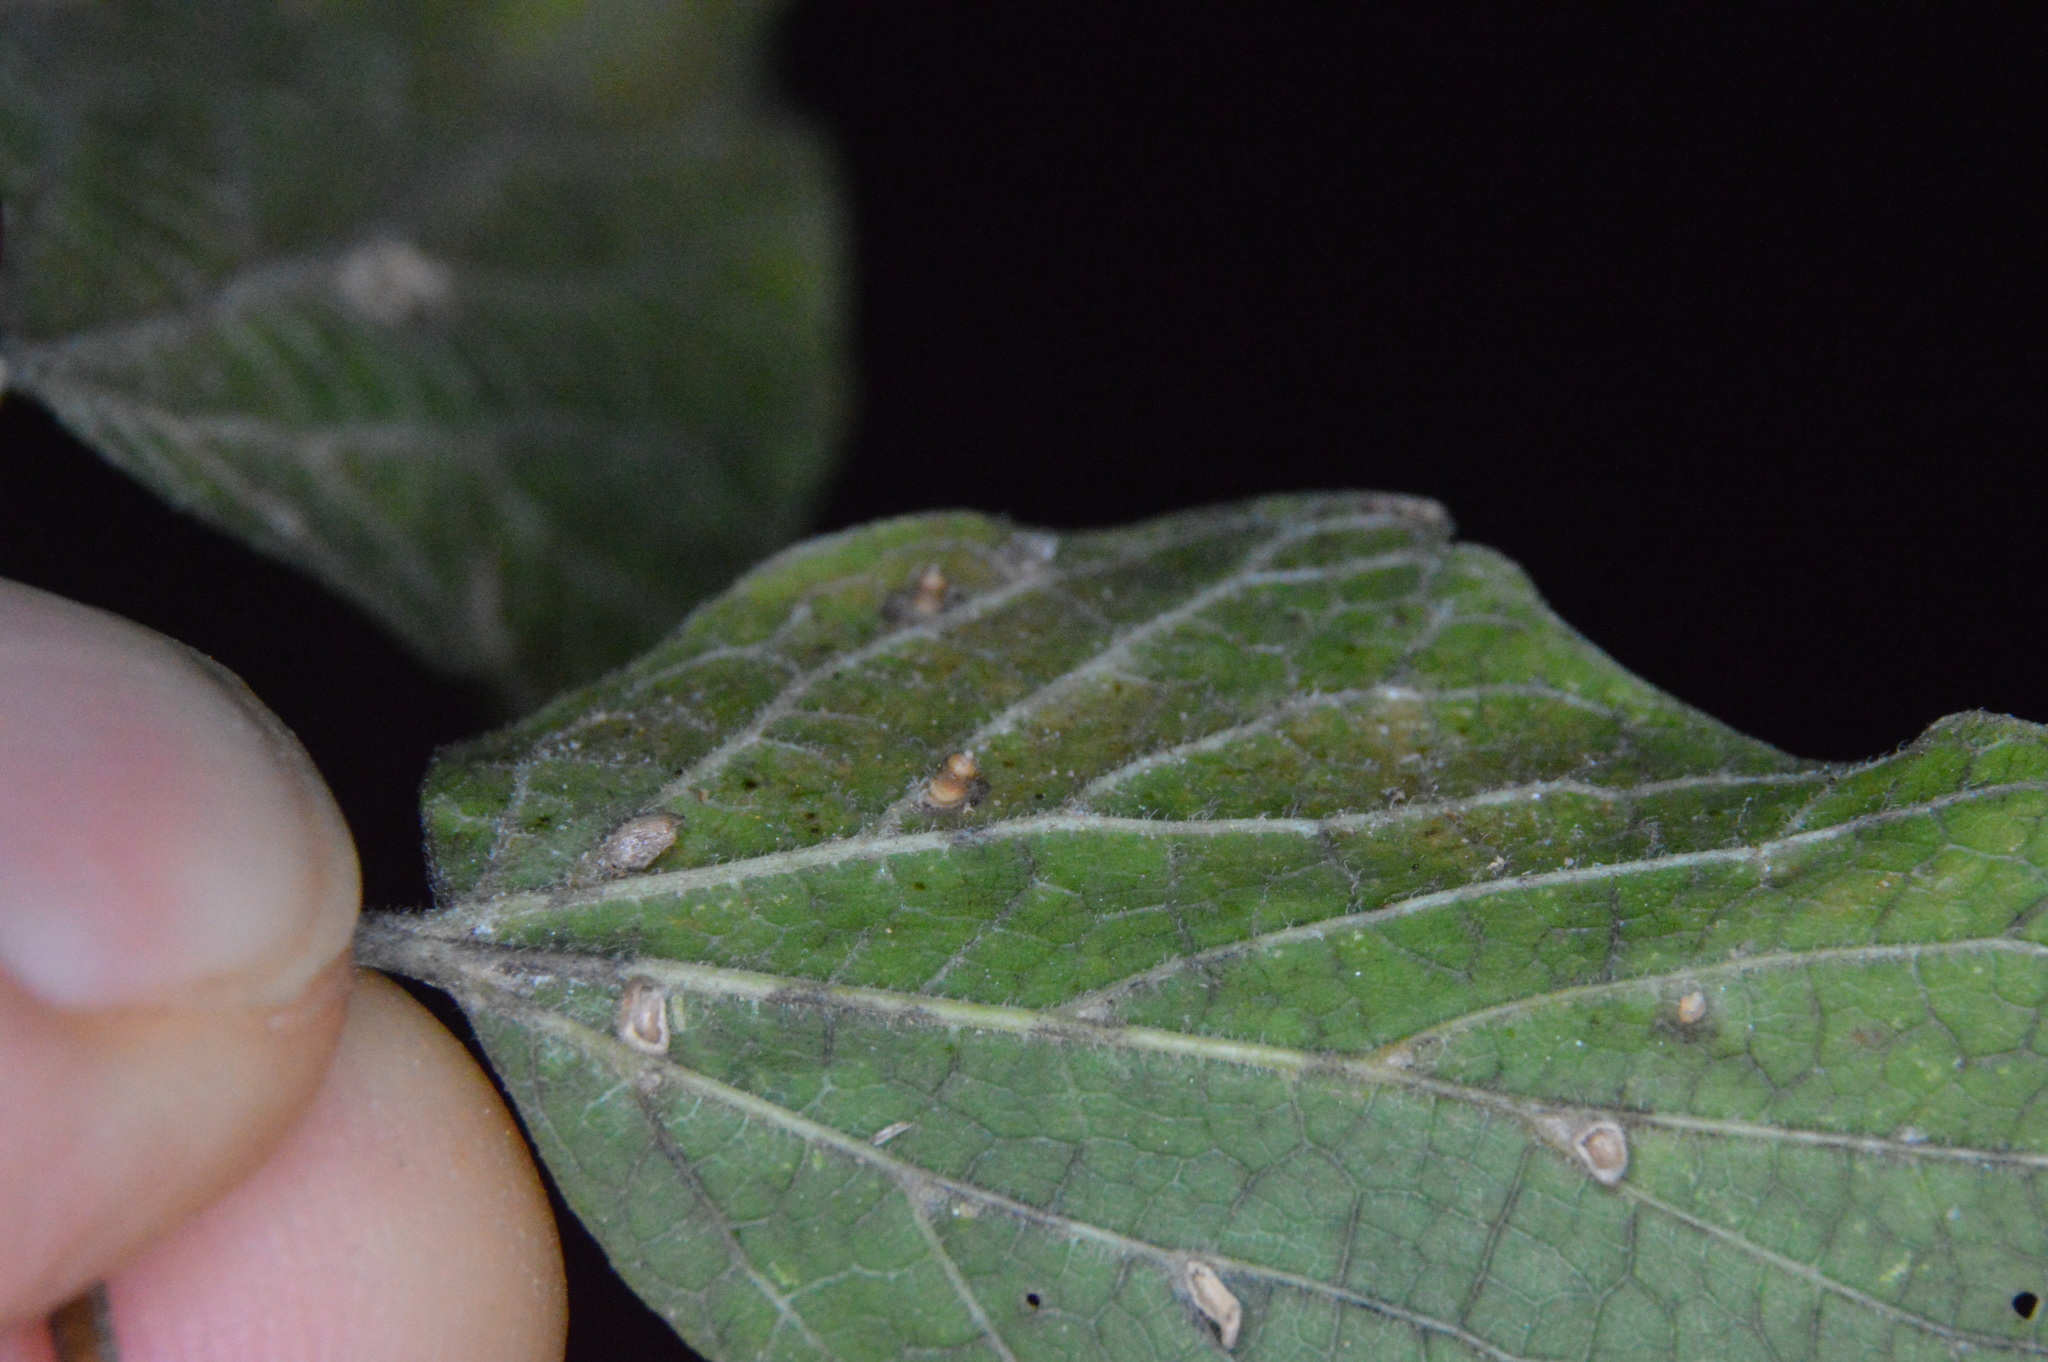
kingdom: Animalia
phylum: Arthropoda
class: Insecta
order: Diptera
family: Cecidomyiidae
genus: Celticecis
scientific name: Celticecis cupiformis
